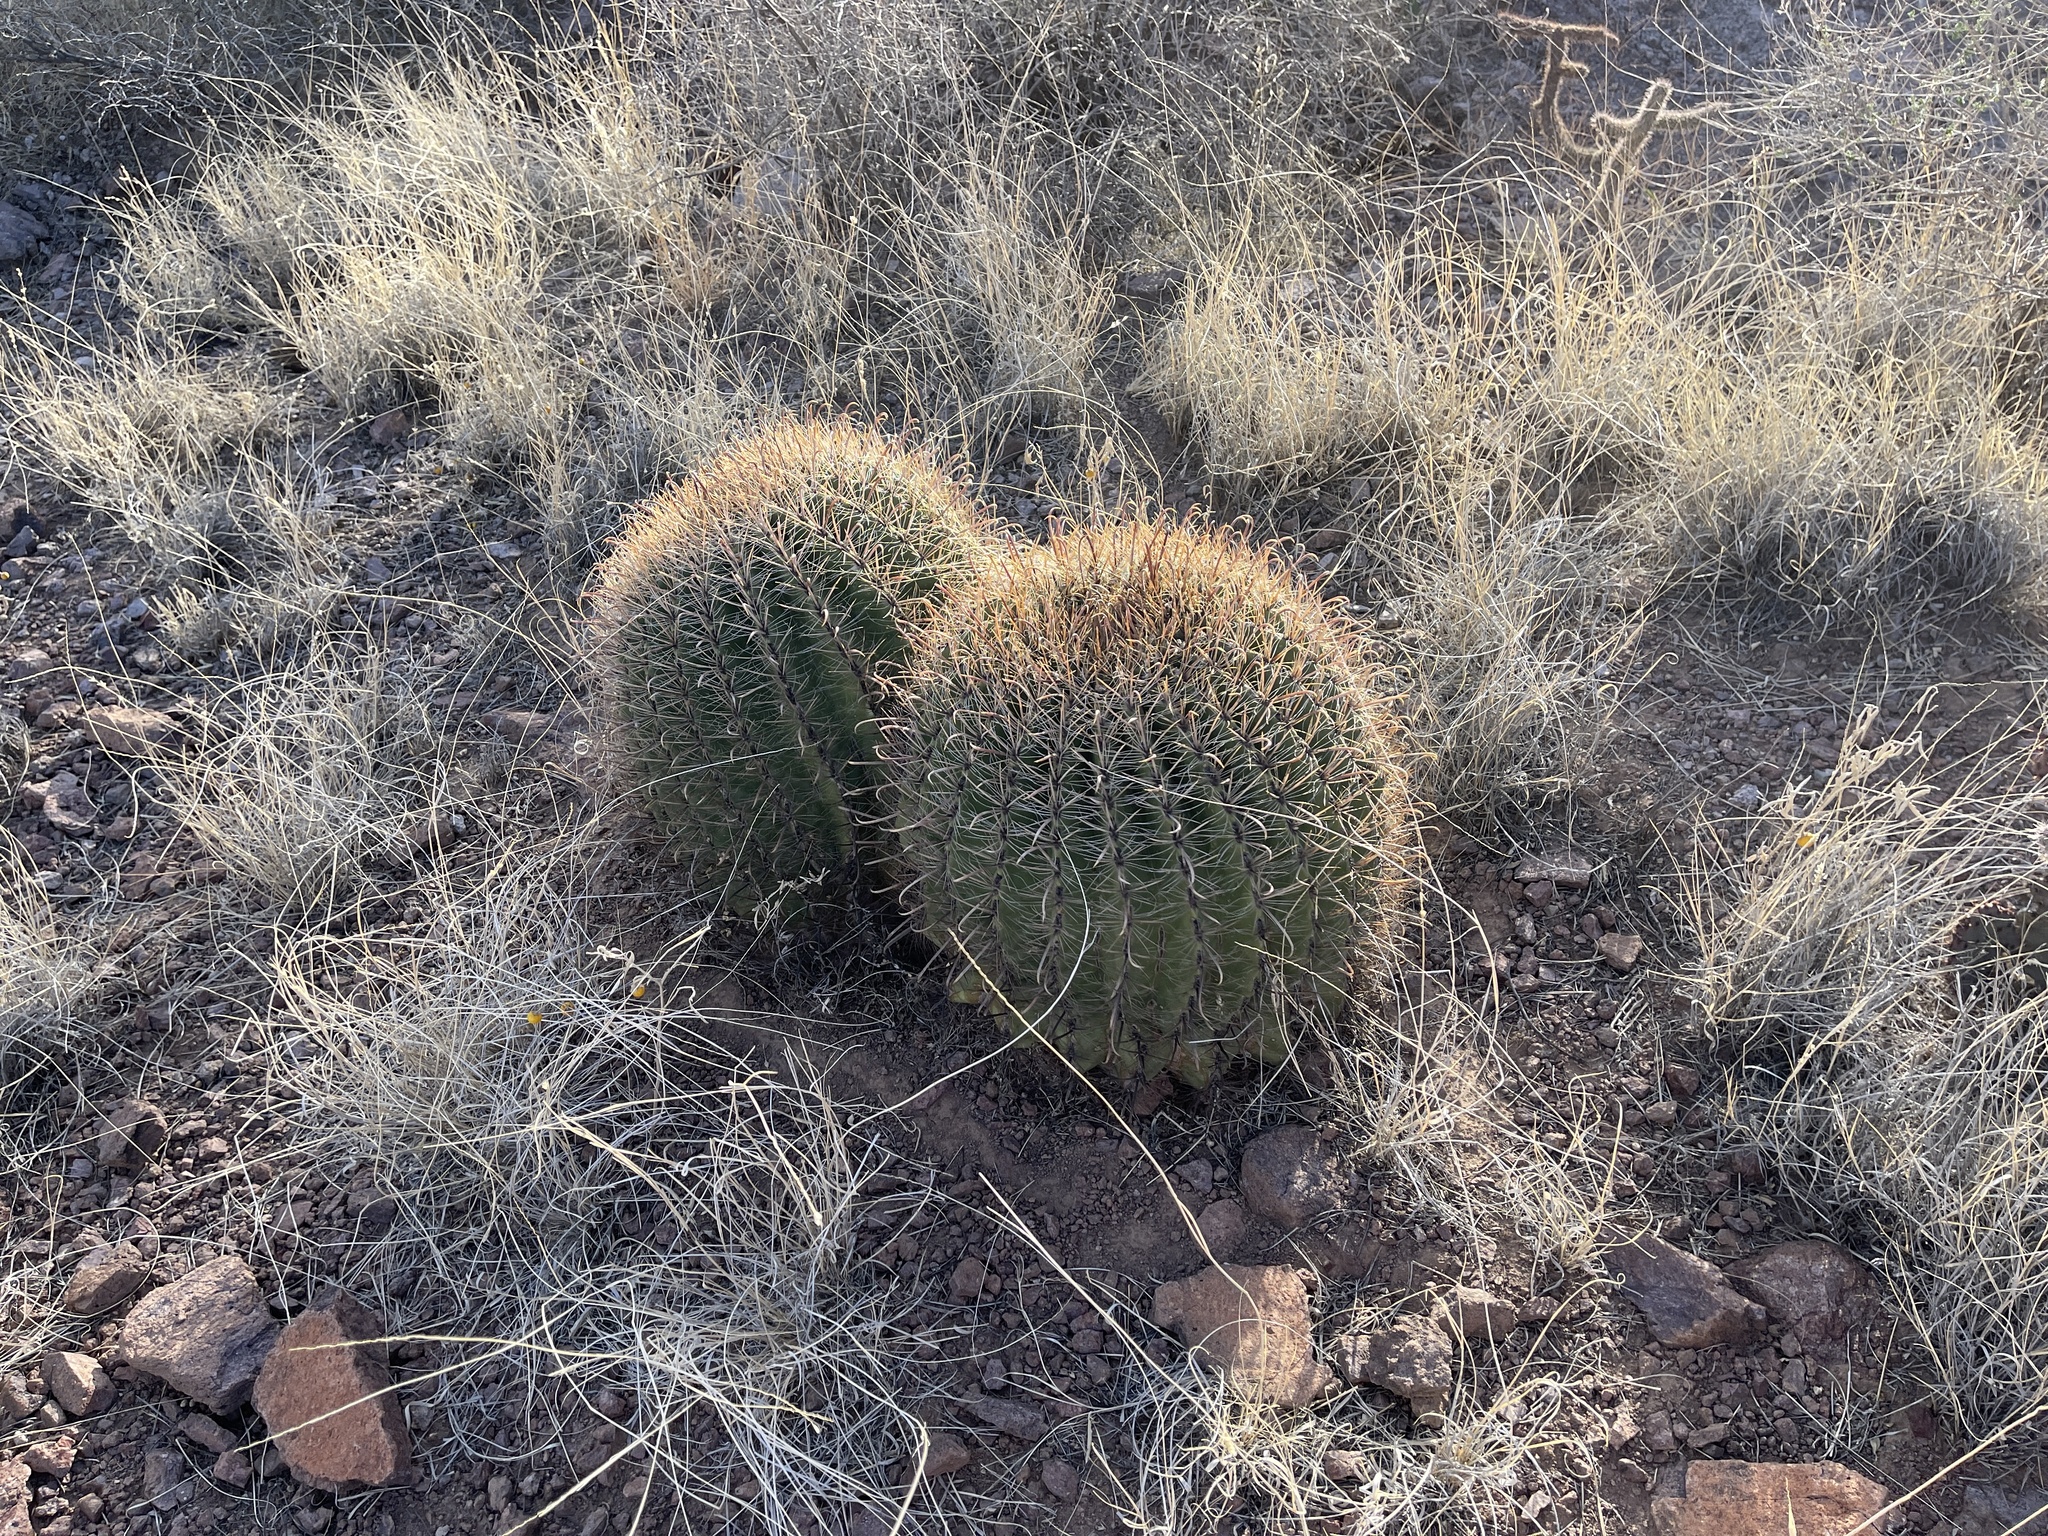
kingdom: Plantae
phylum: Tracheophyta
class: Magnoliopsida
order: Caryophyllales
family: Cactaceae
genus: Ferocactus
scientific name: Ferocactus wislizeni
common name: Candy barrel cactus
